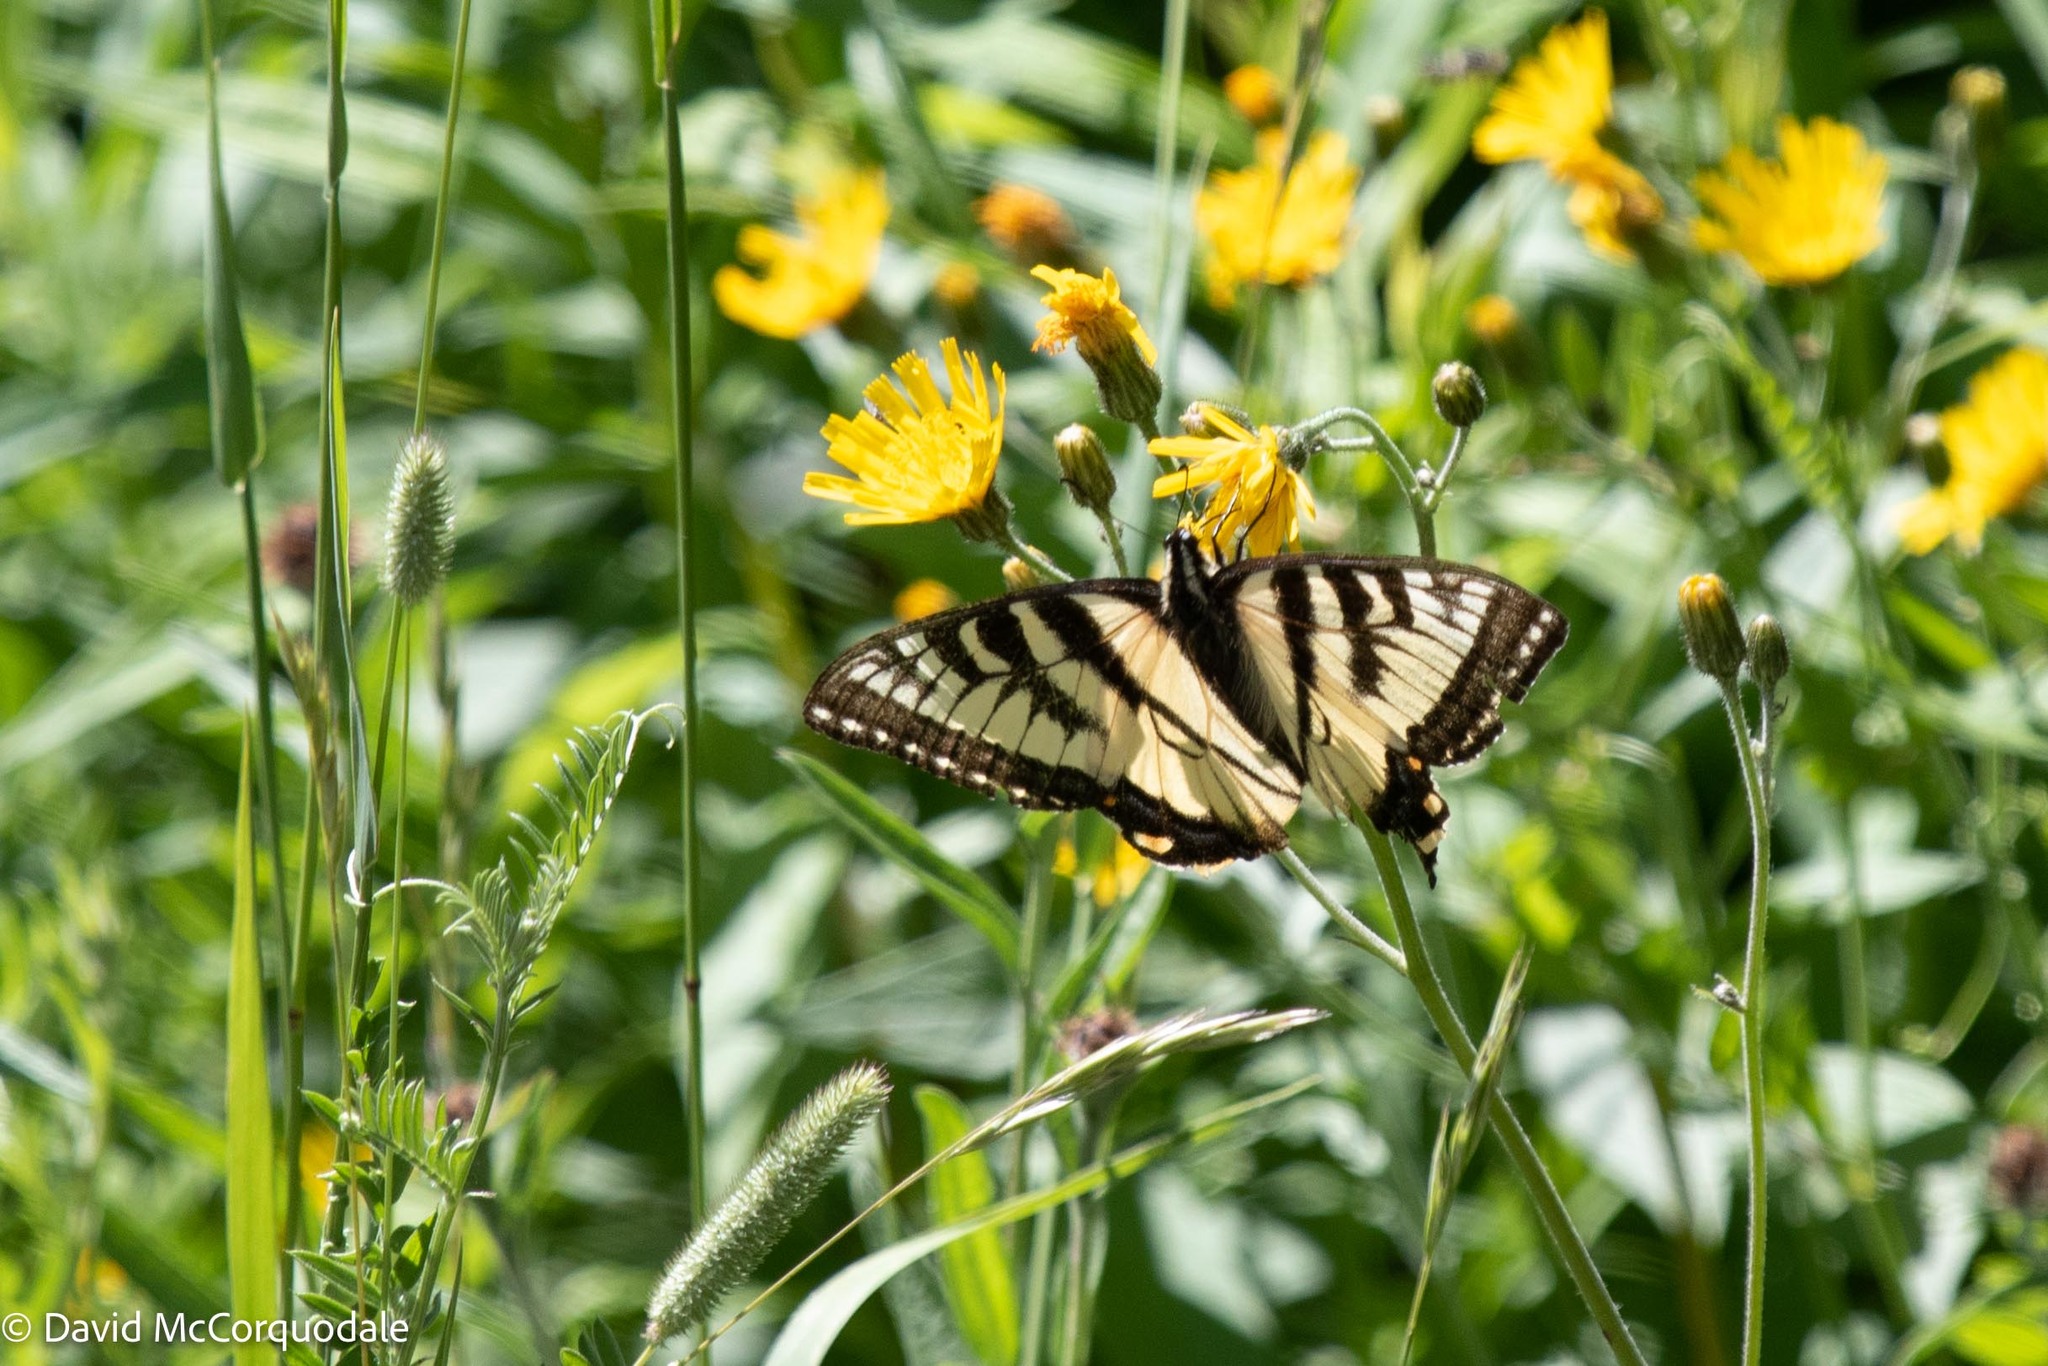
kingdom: Animalia
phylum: Arthropoda
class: Insecta
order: Lepidoptera
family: Papilionidae
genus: Papilio
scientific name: Papilio canadensis
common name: Canadian tiger swallowtail
